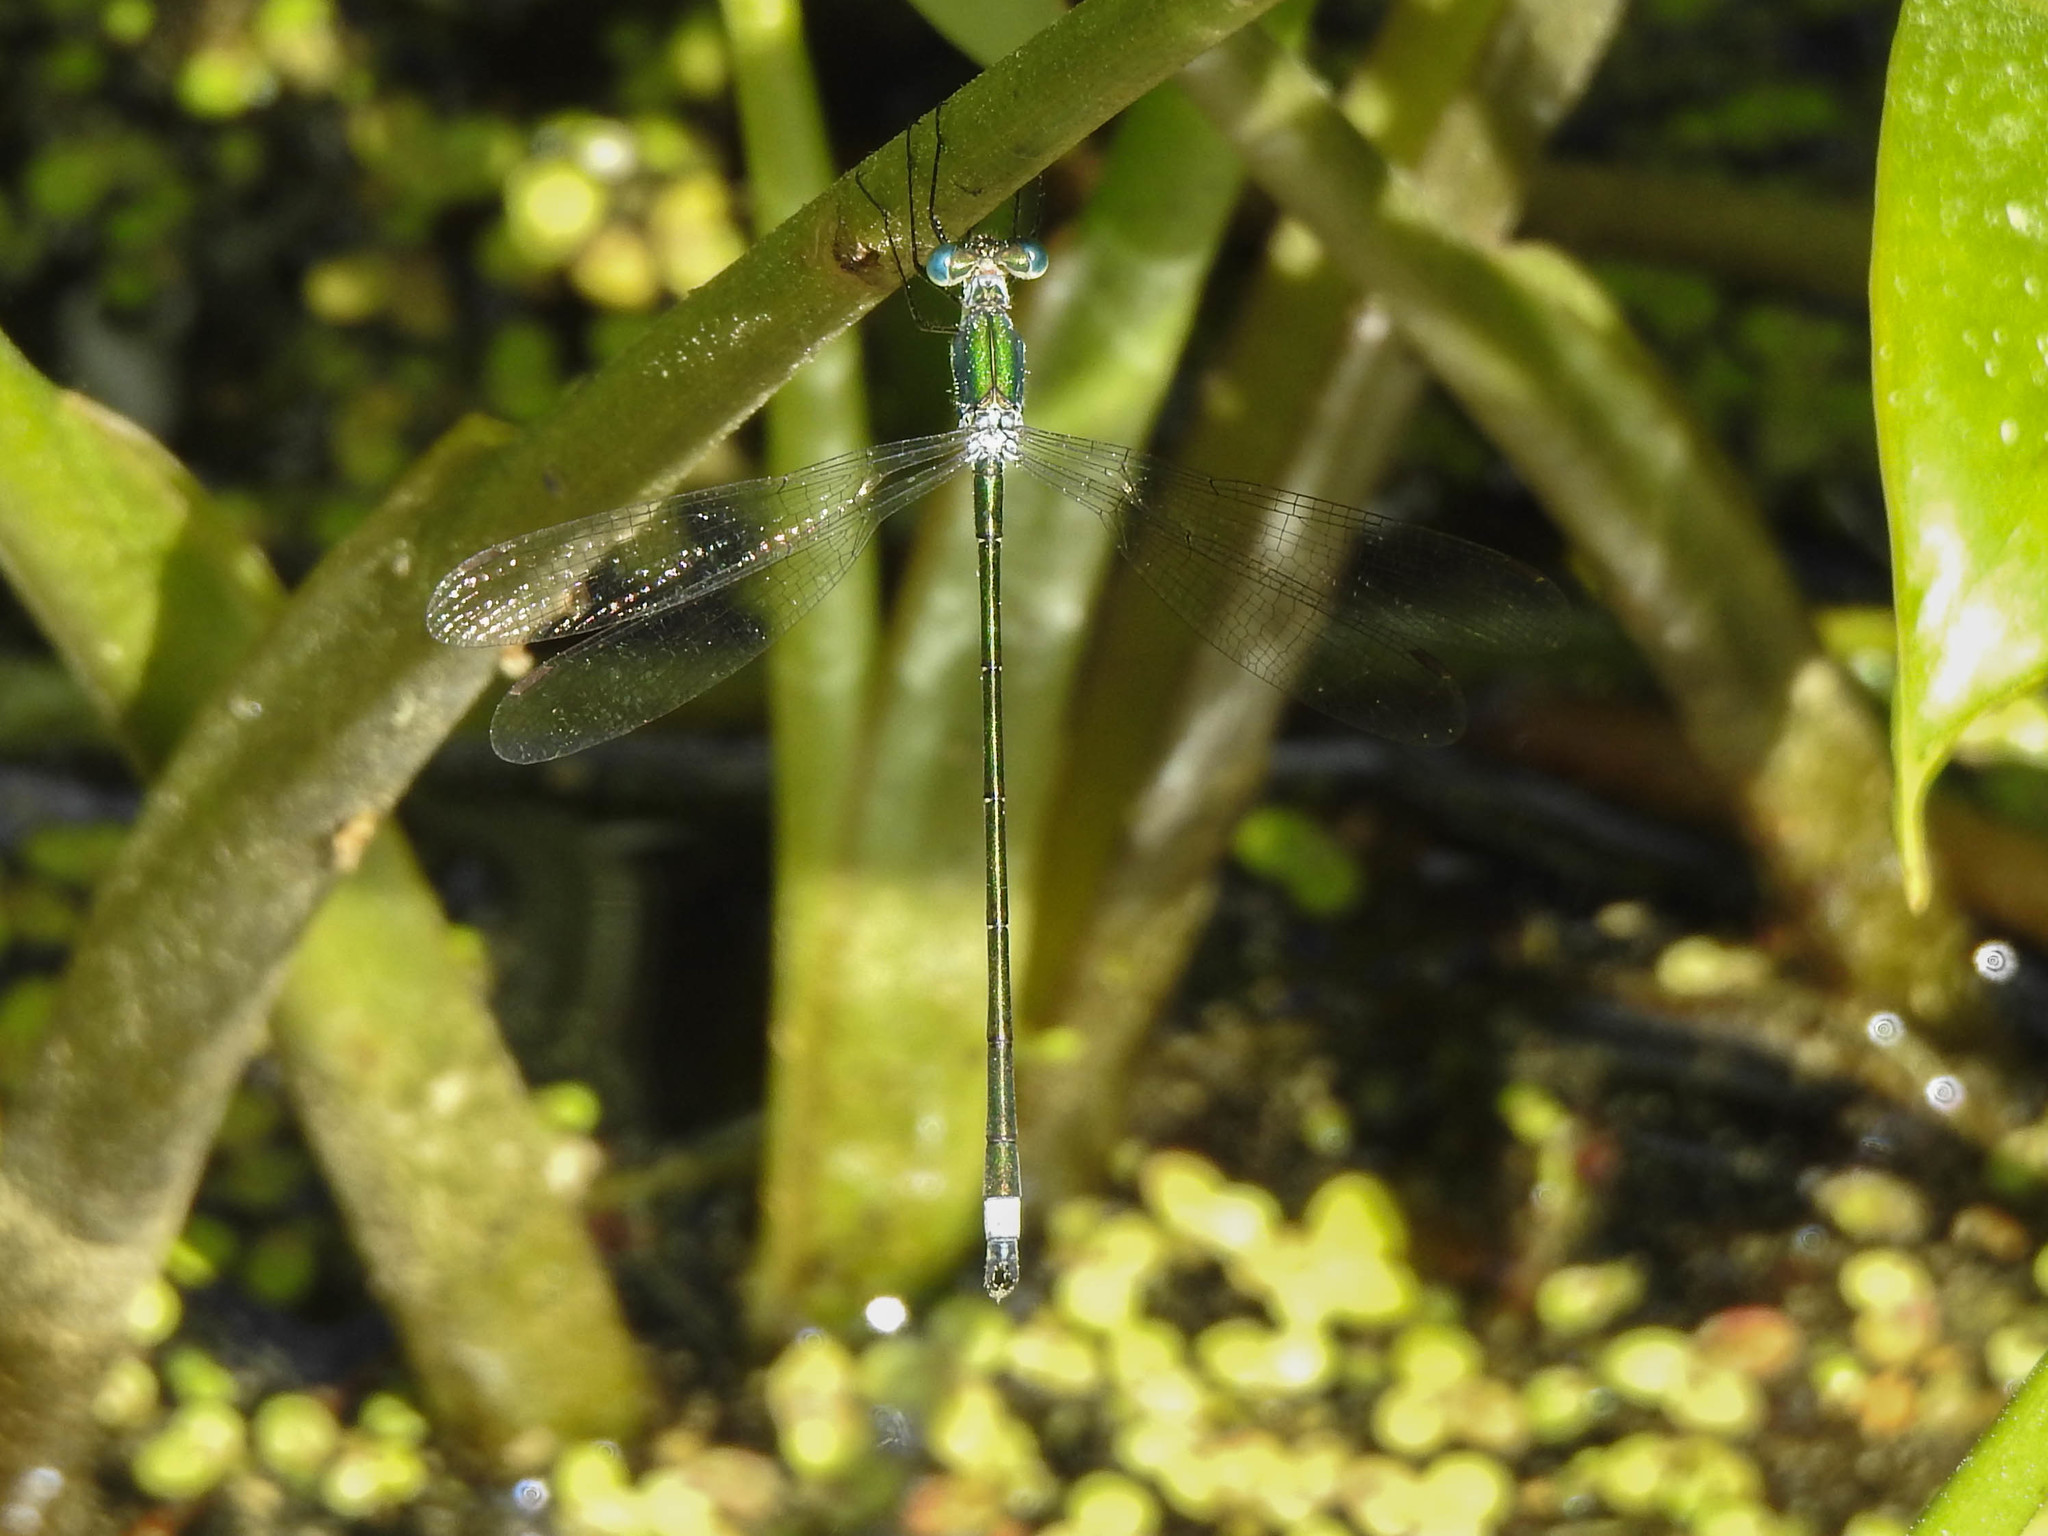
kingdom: Animalia
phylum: Arthropoda
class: Insecta
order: Odonata
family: Lestidae
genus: Lestes
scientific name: Lestes inaequalis
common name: Elegant spreadwing
